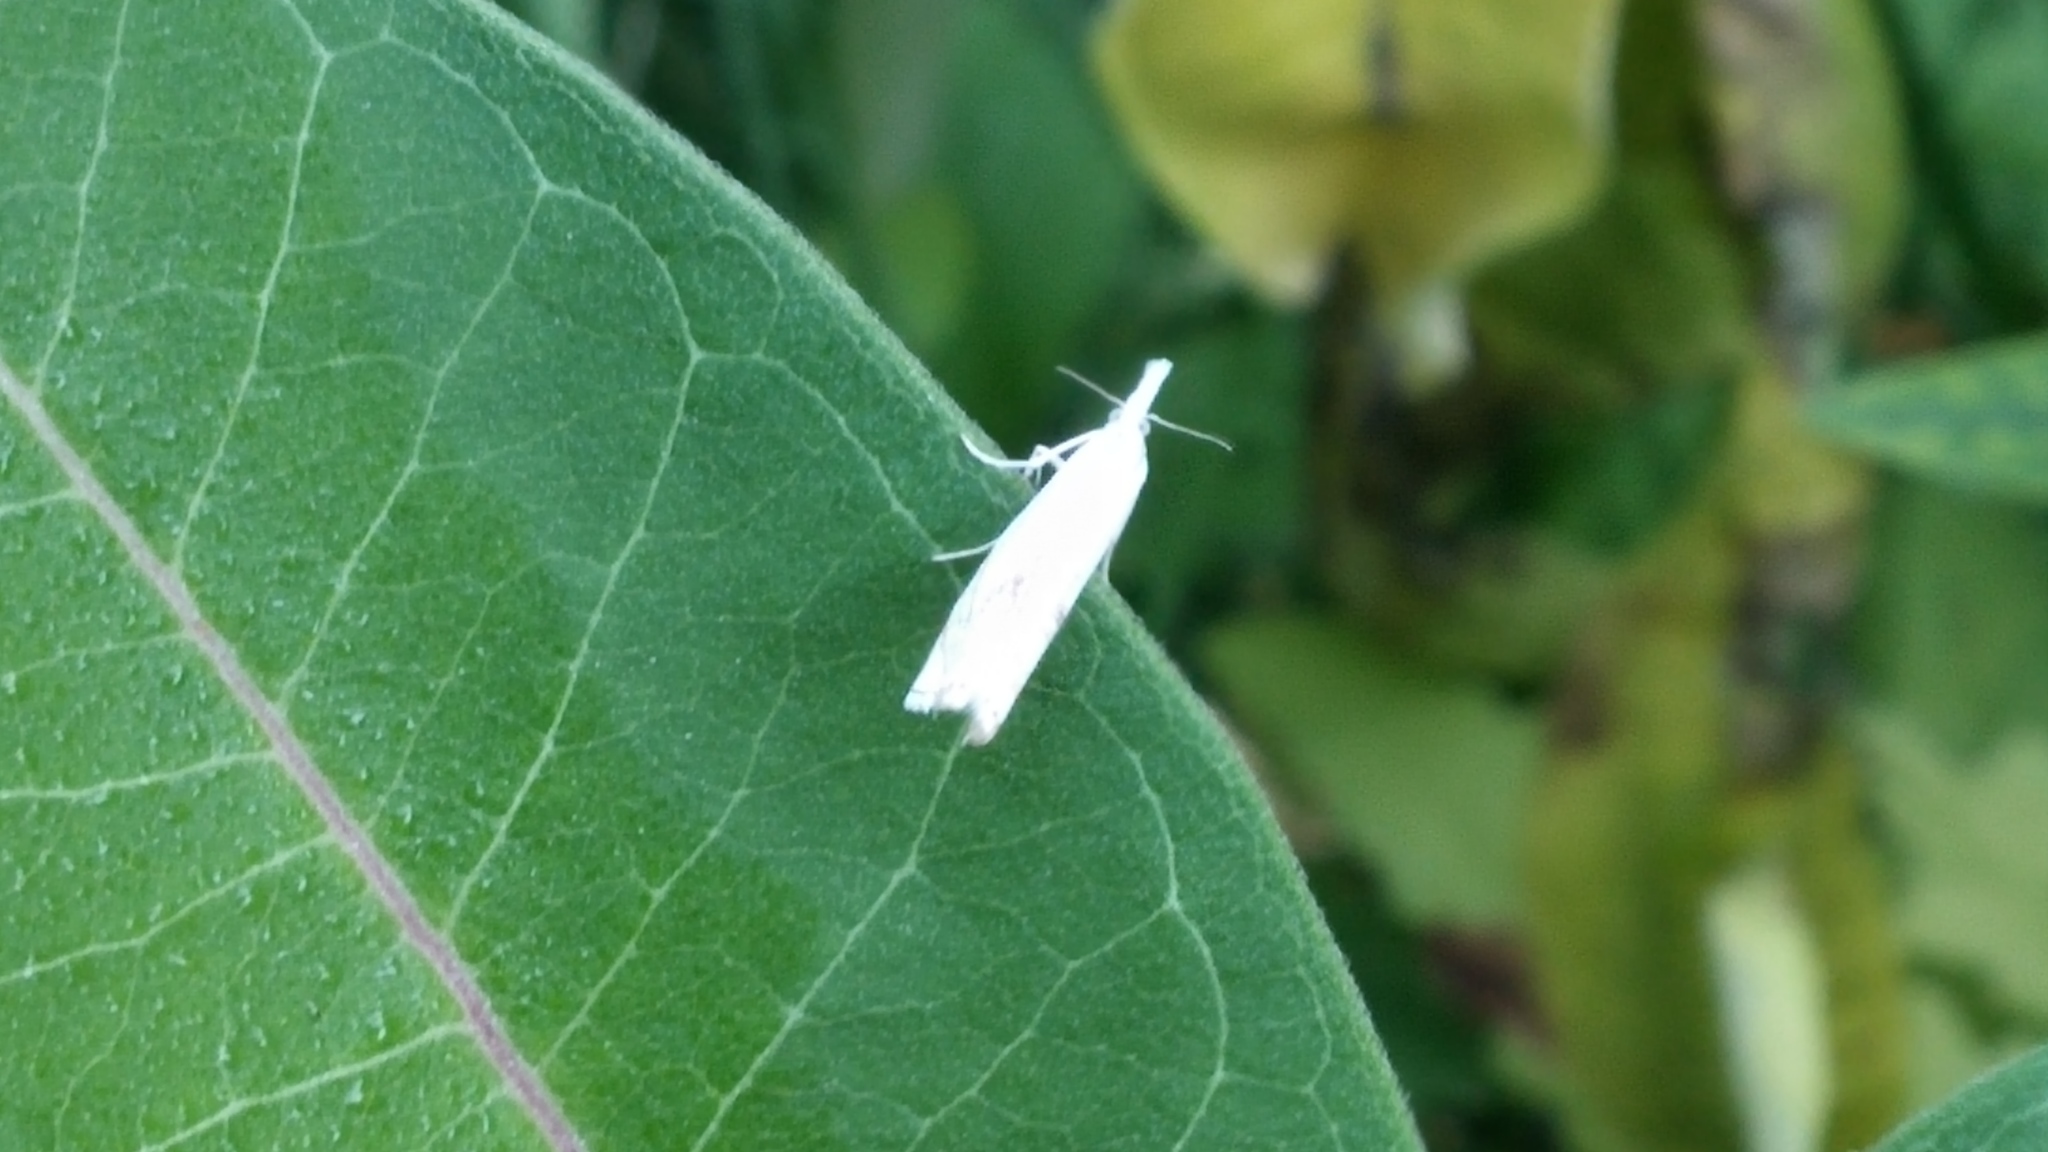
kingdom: Animalia
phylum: Arthropoda
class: Insecta
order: Lepidoptera
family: Crambidae
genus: Crambus
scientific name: Crambus albellus
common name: Small white grass-veneer
